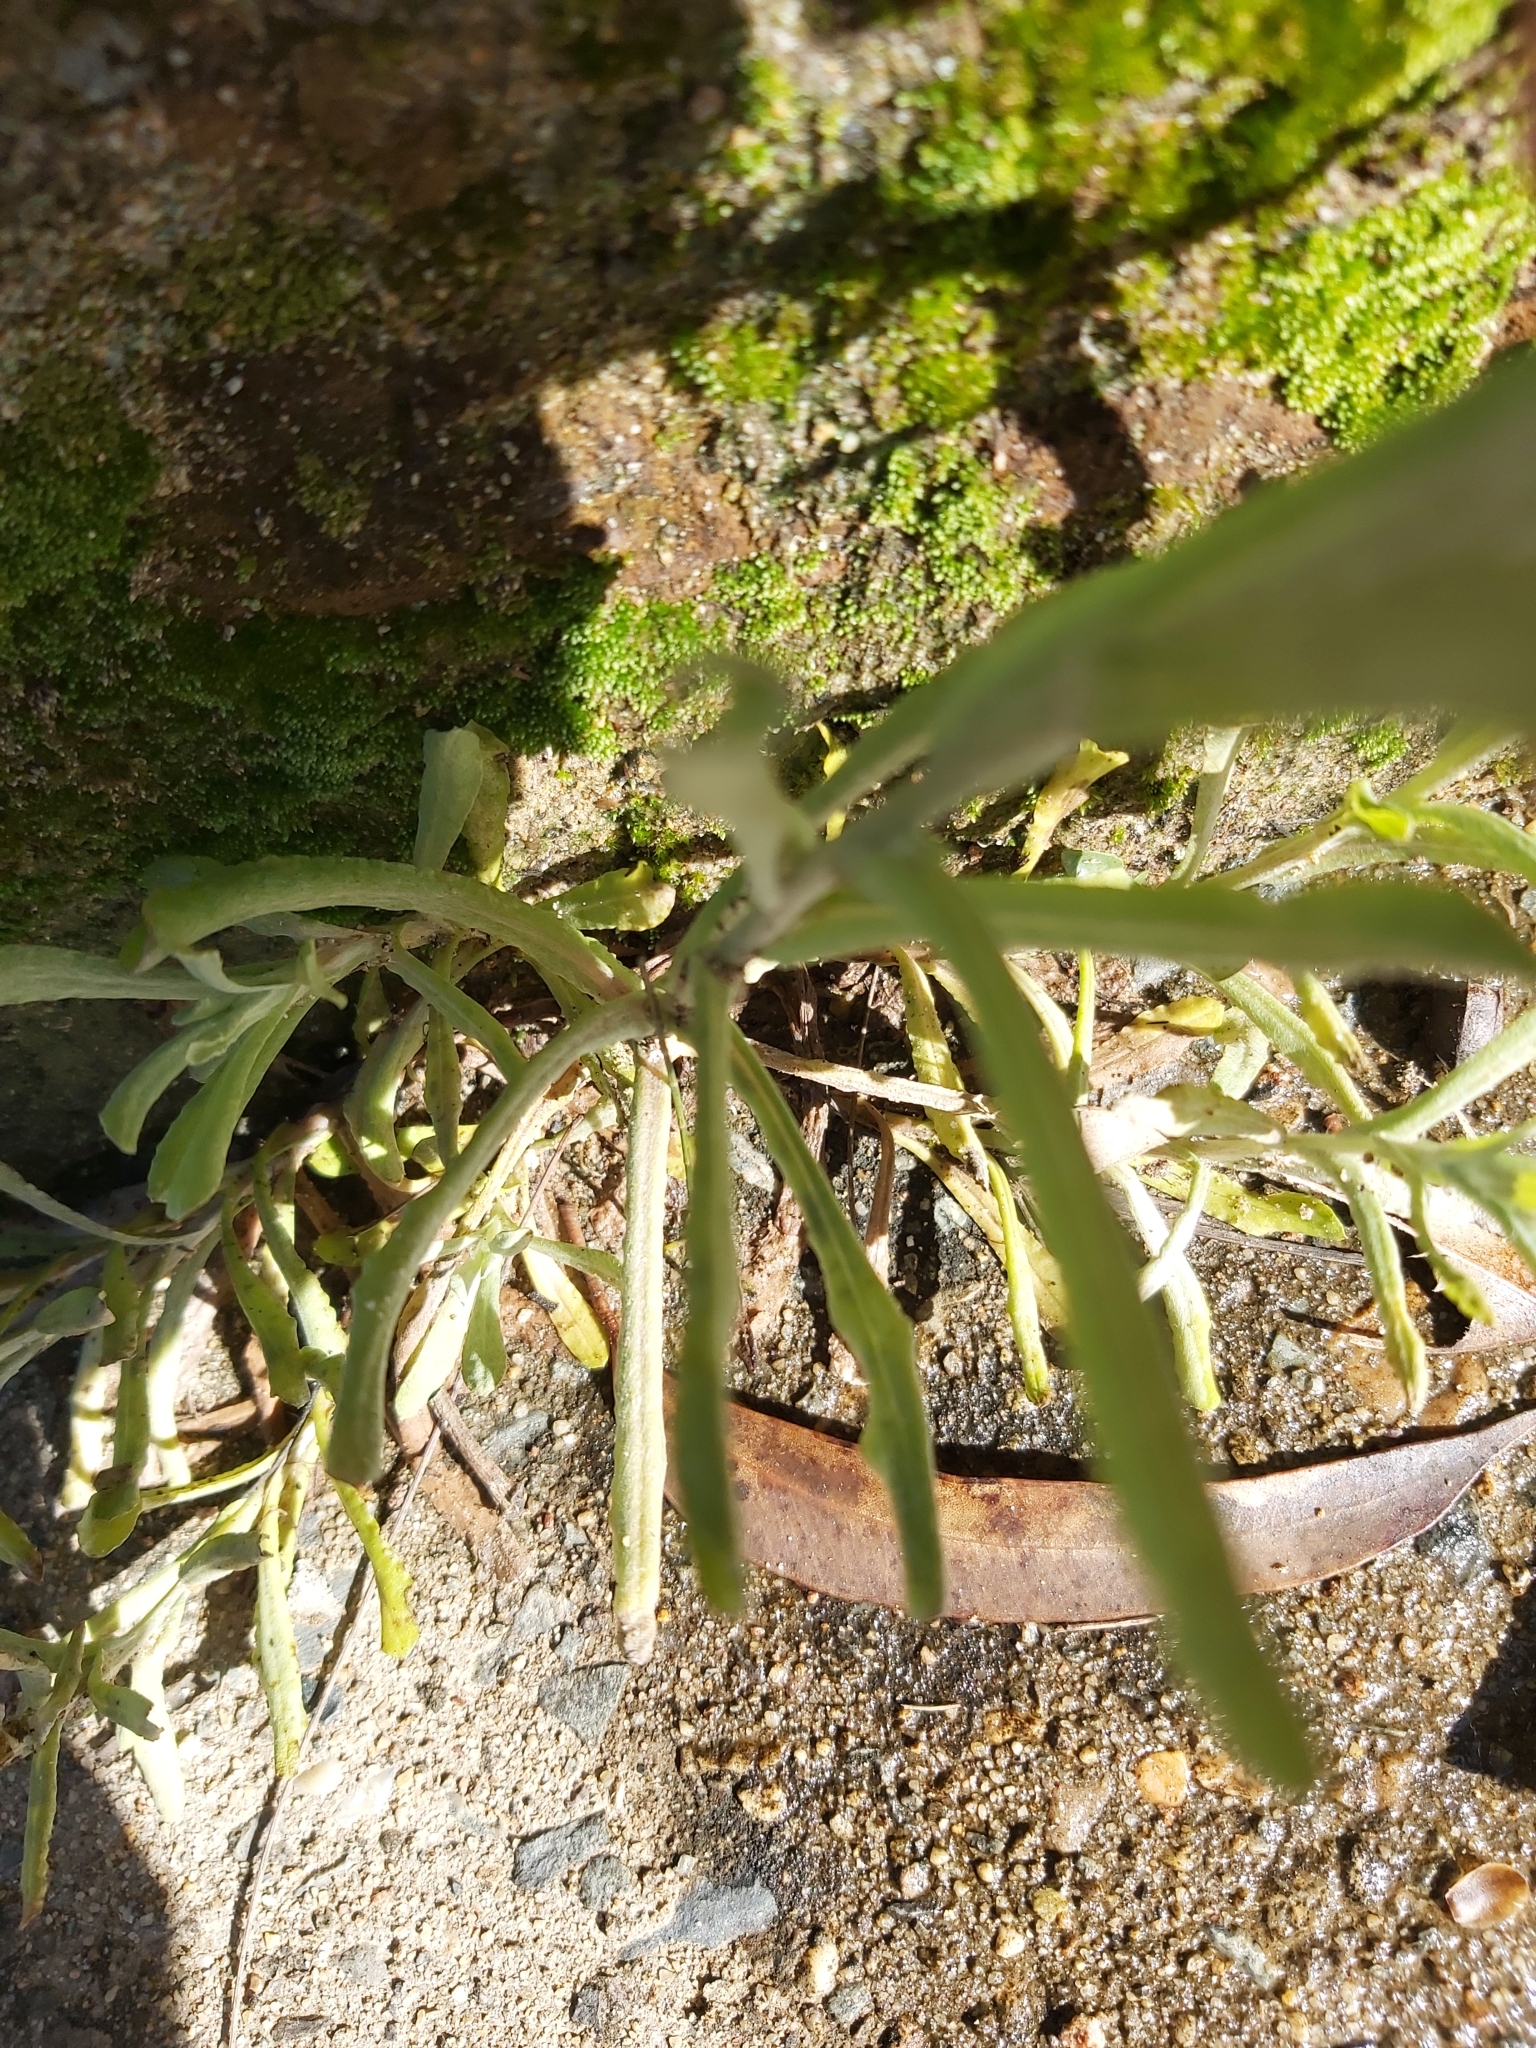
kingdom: Plantae
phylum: Tracheophyta
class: Magnoliopsida
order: Asterales
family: Asteraceae
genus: Helichrysum
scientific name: Helichrysum luteoalbum
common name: Daisy
